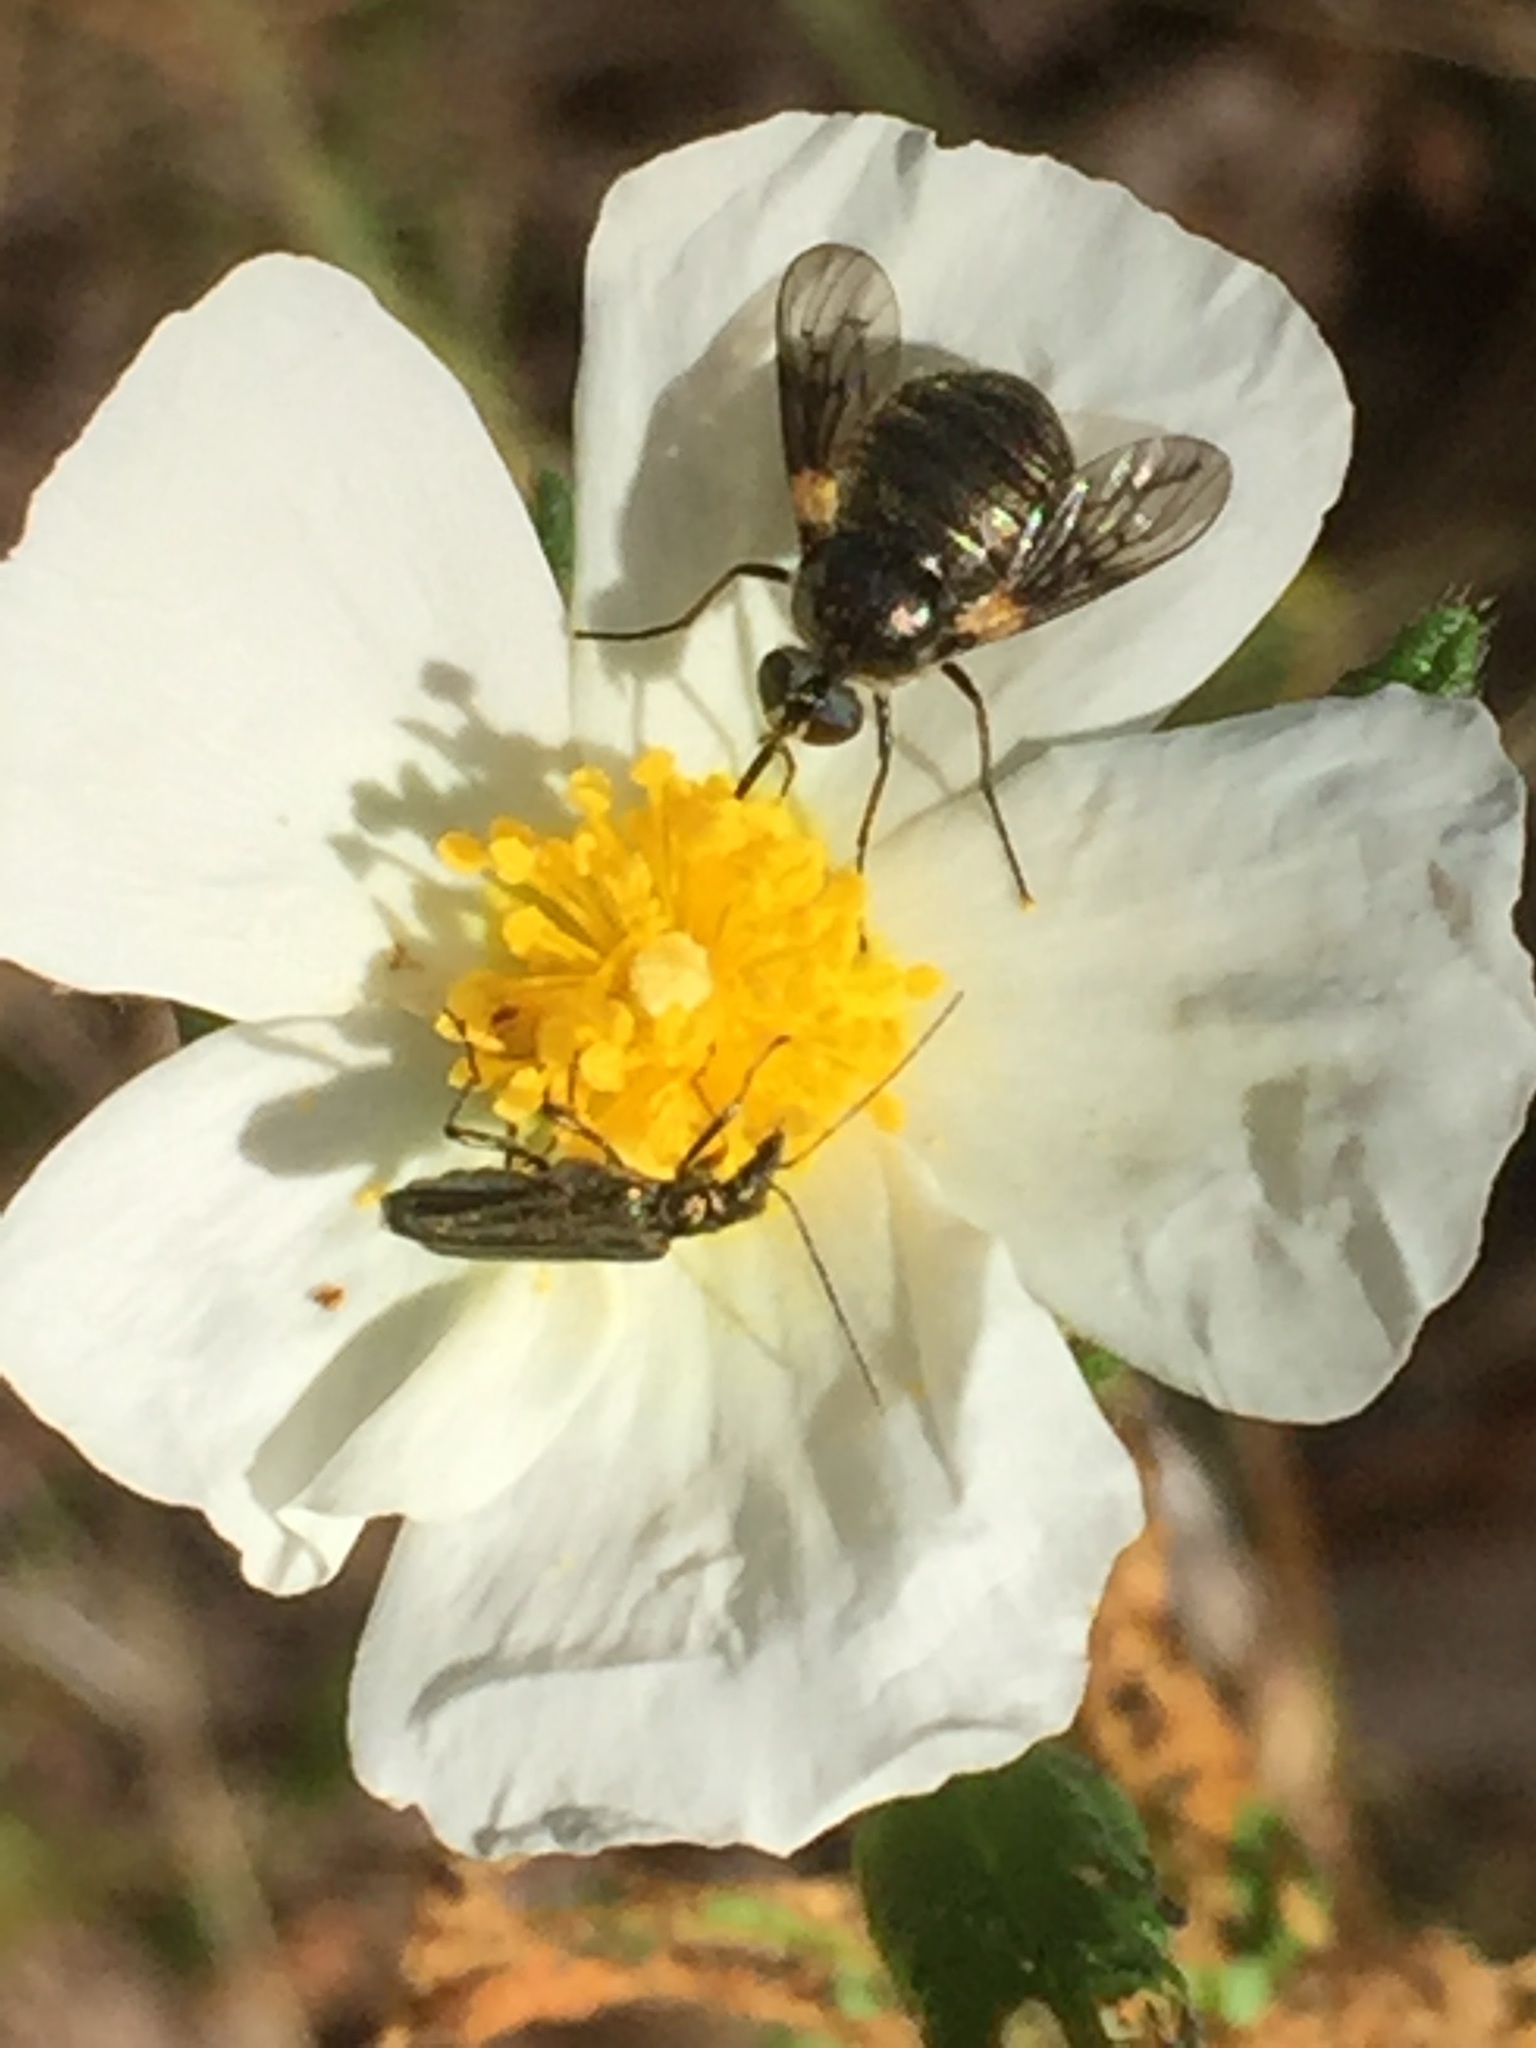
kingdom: Plantae
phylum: Tracheophyta
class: Magnoliopsida
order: Malvales
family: Cistaceae
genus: Cistus
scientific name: Cistus inflatus
